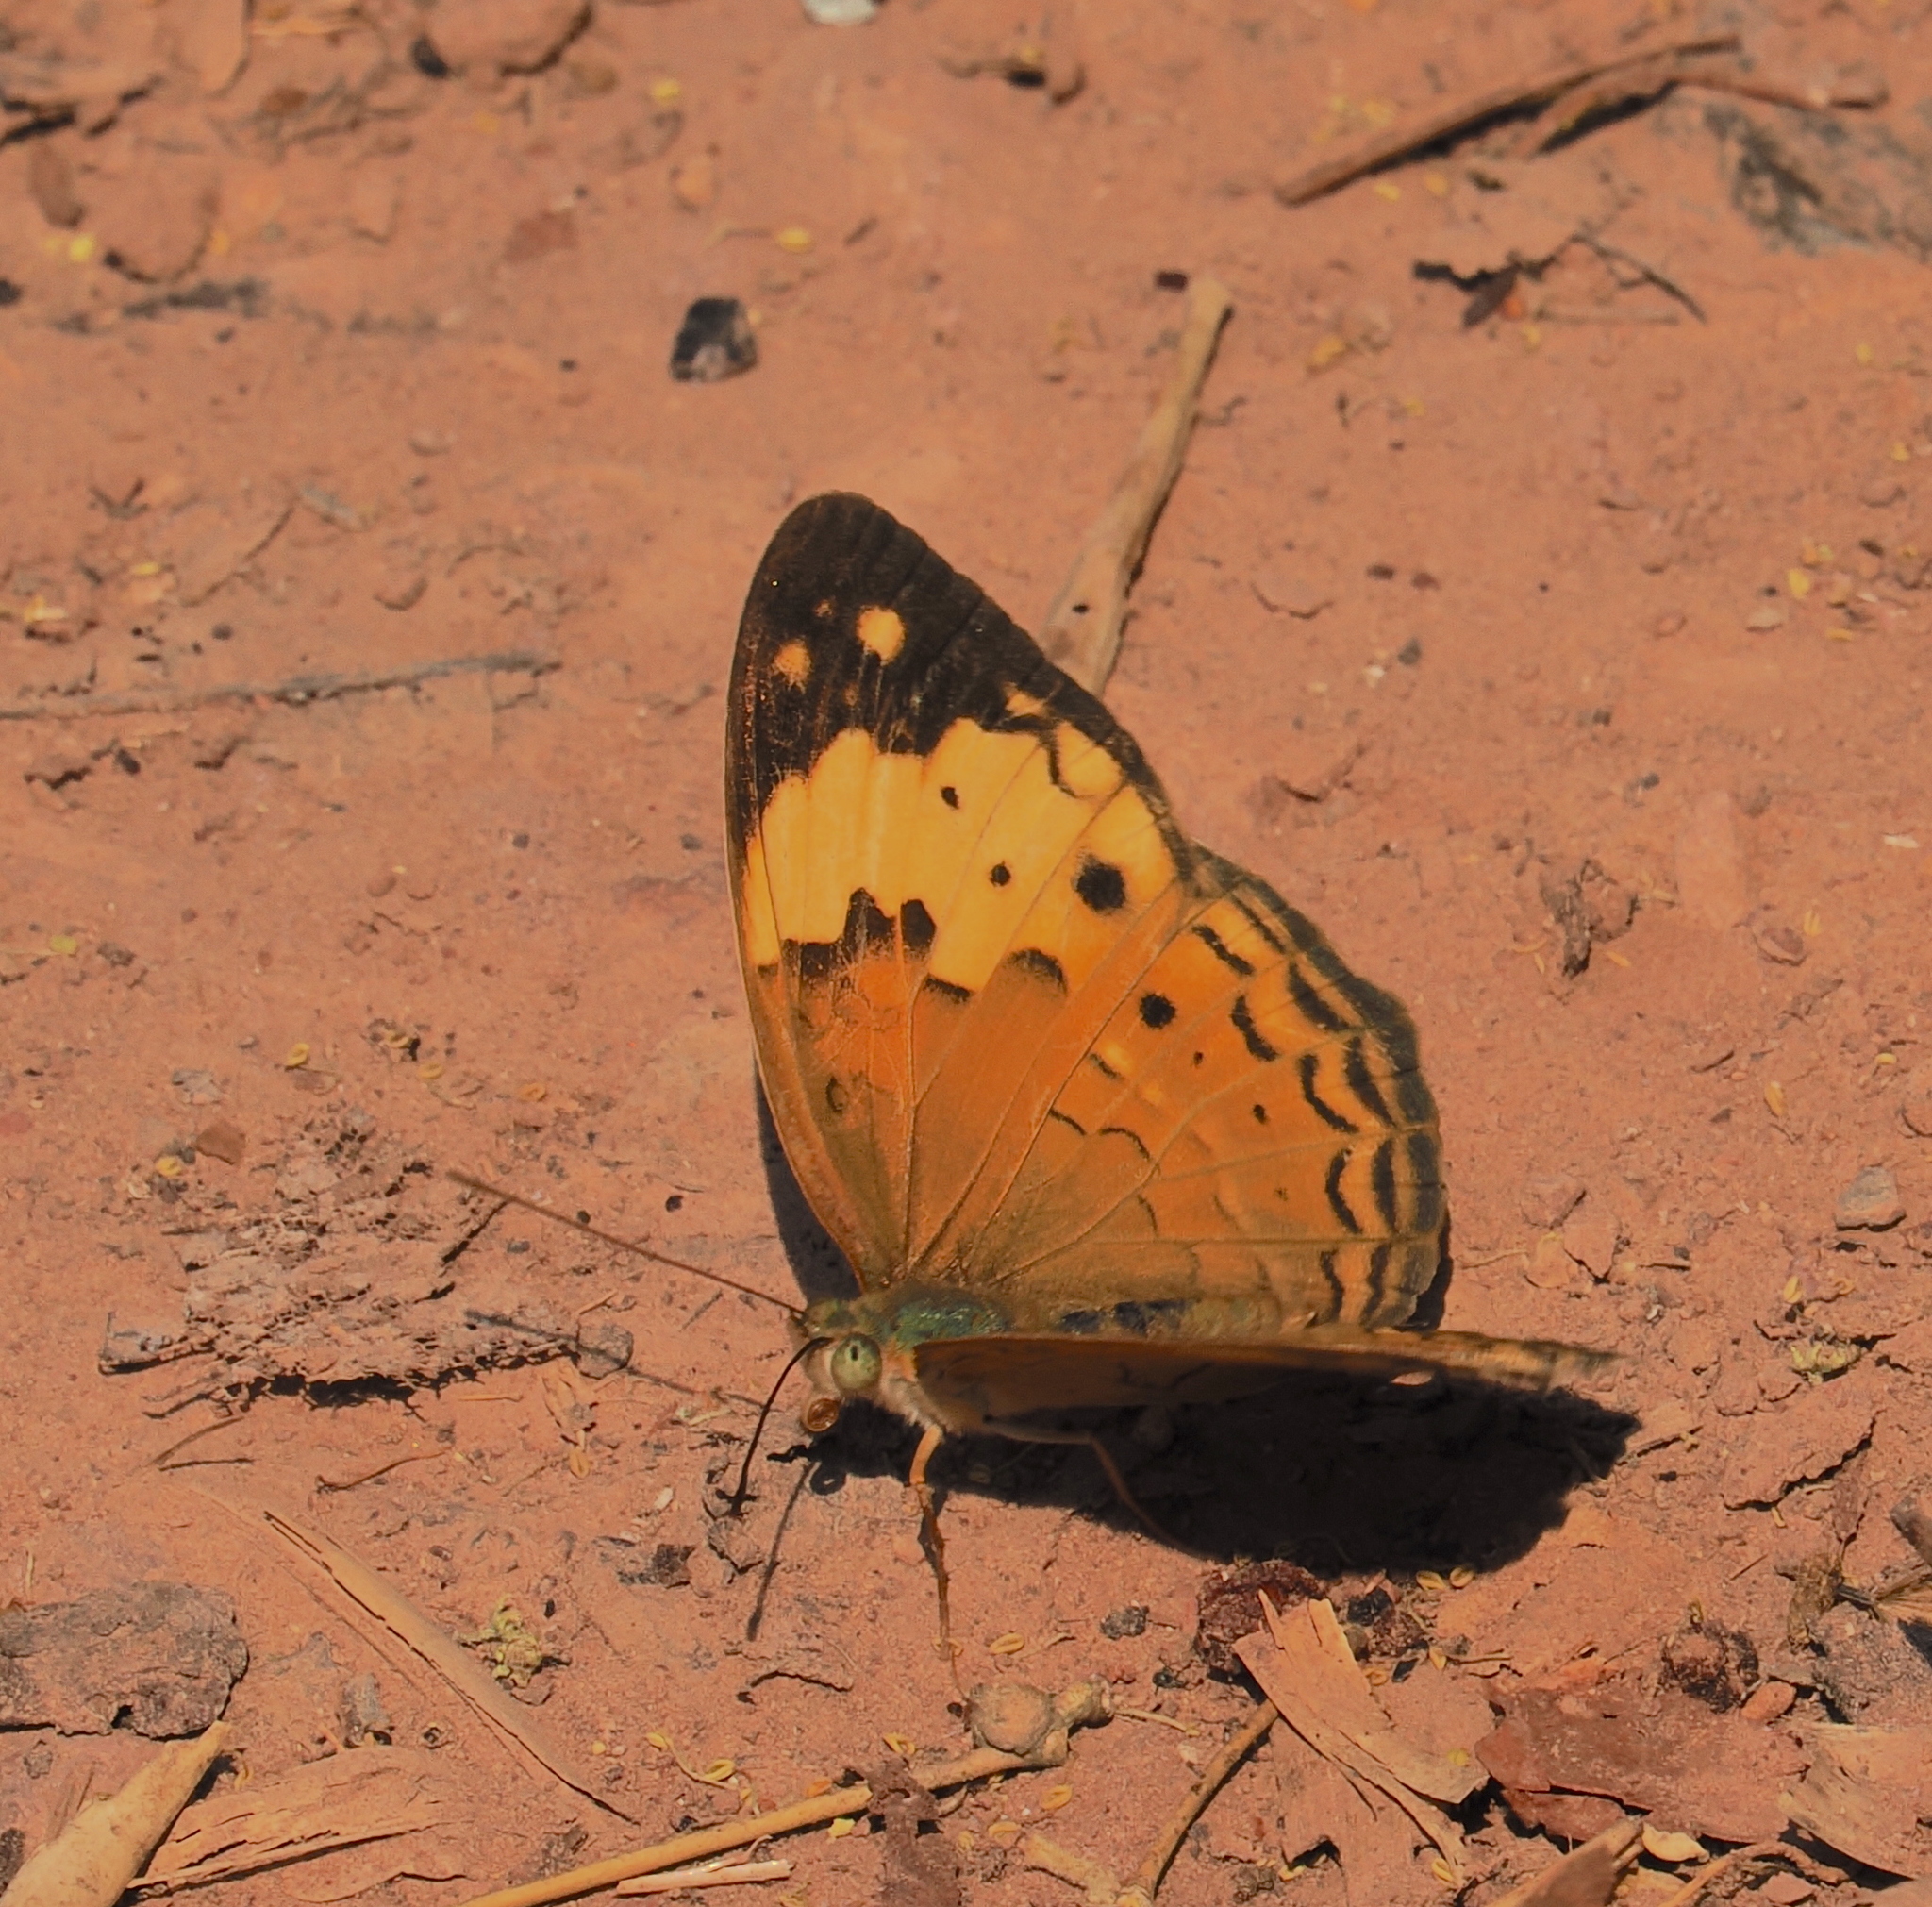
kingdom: Animalia
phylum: Arthropoda
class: Insecta
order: Lepidoptera
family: Nymphalidae
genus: Cupha
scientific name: Cupha erymanthis
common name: Rustic
